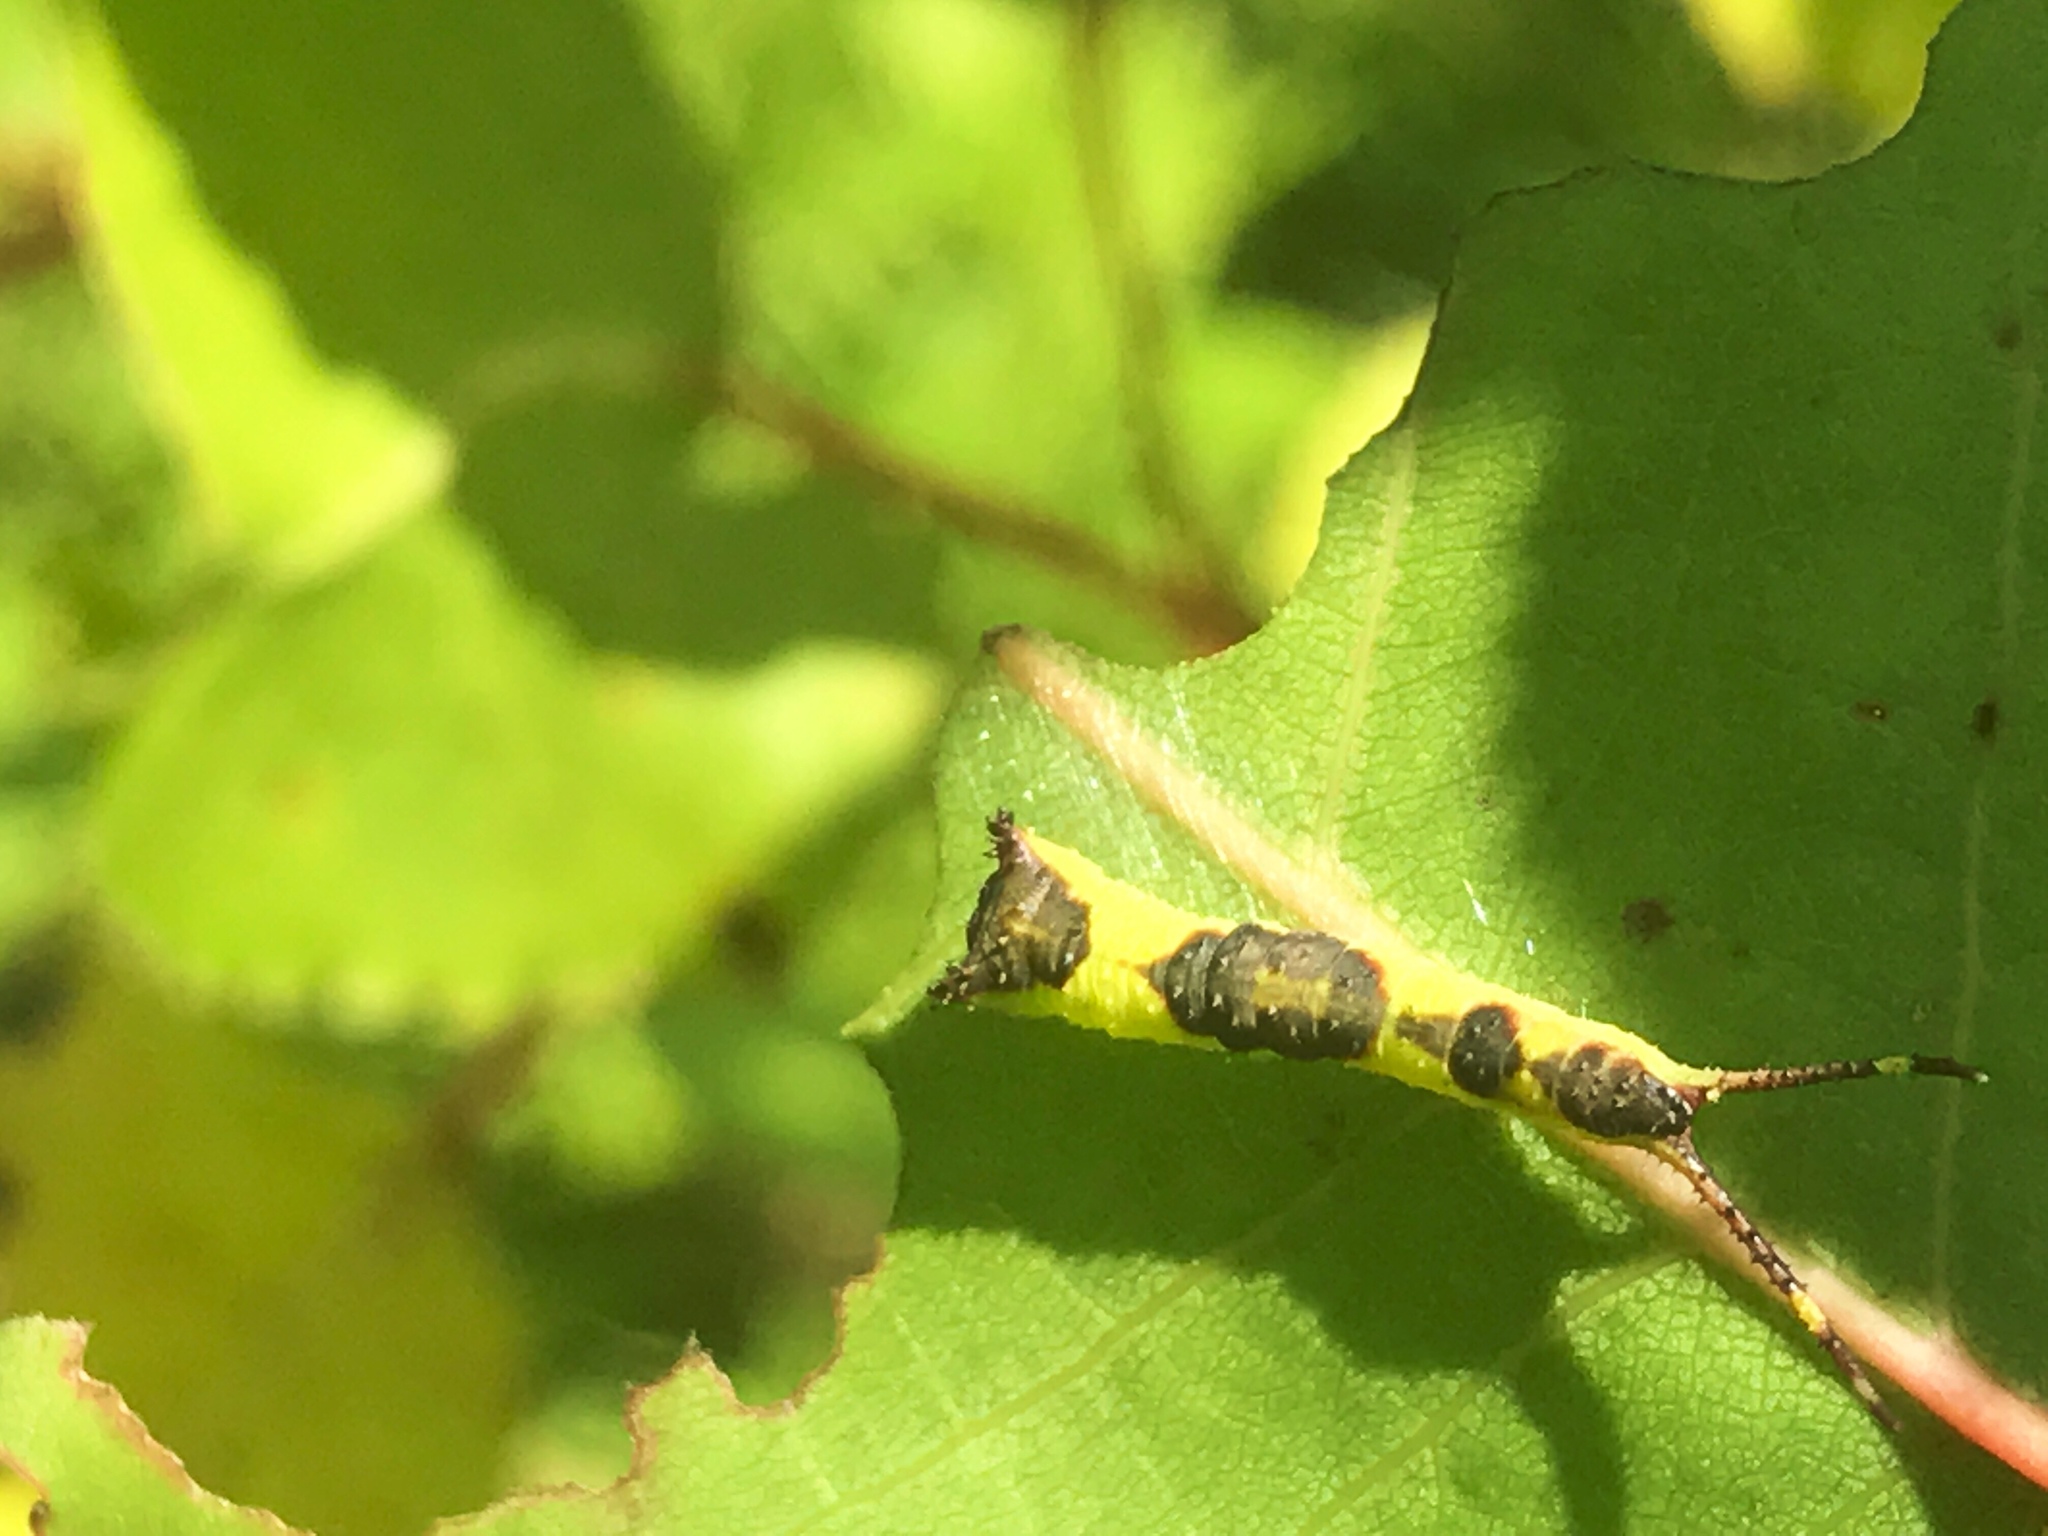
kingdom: Animalia
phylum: Arthropoda
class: Insecta
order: Lepidoptera
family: Notodontidae
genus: Furcula
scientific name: Furcula cinerea
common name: Gray furcula
